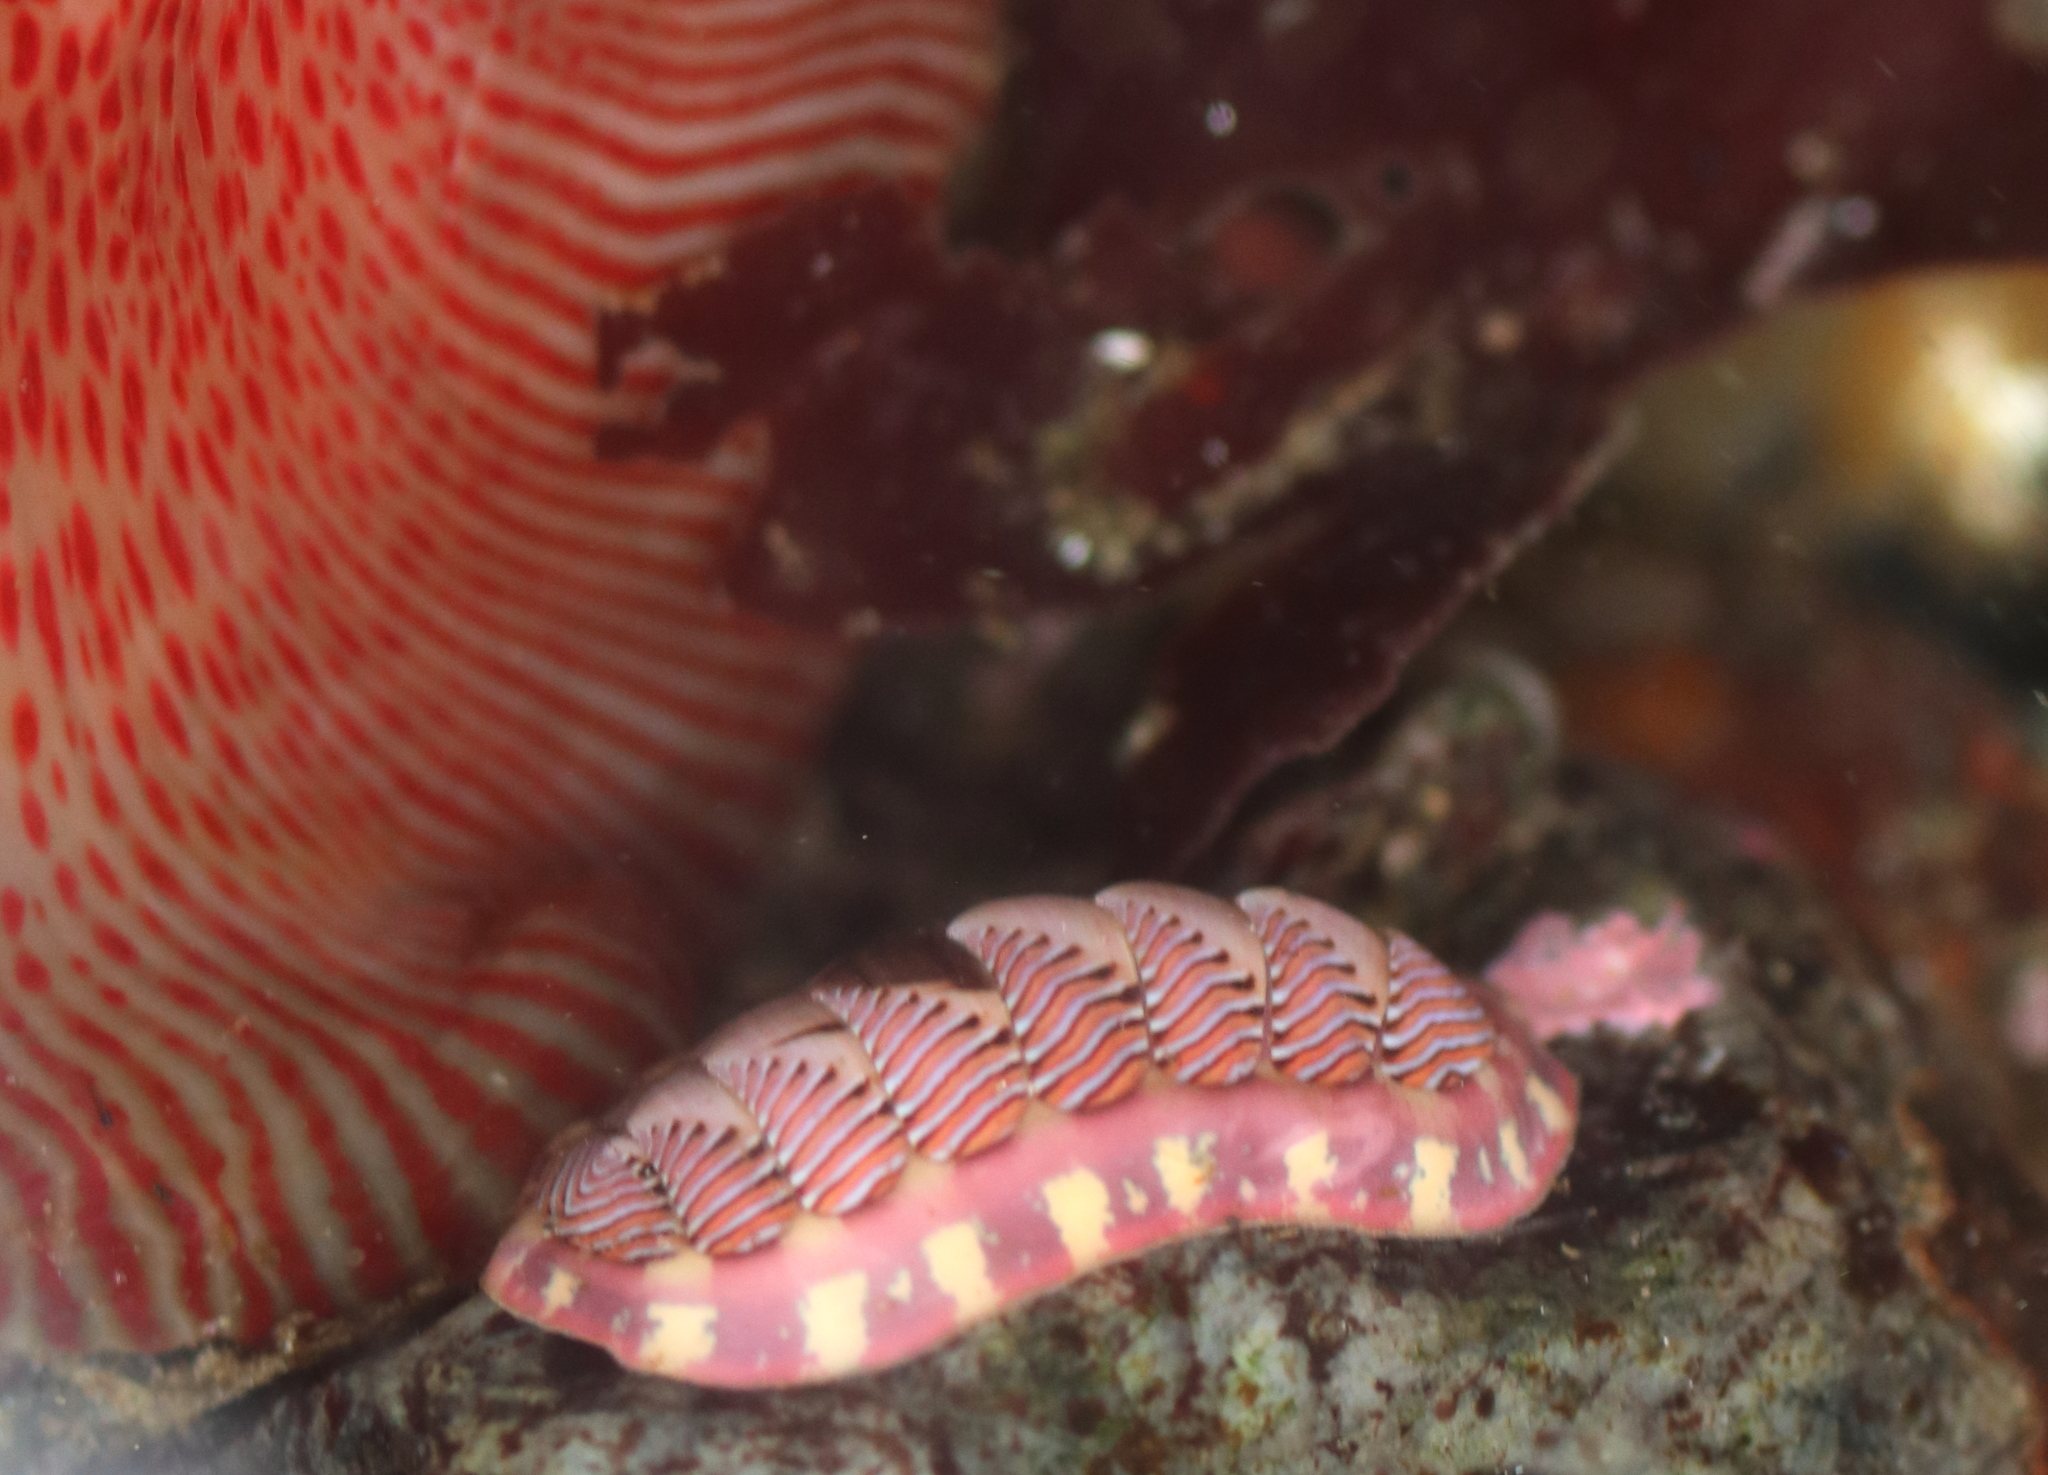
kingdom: Animalia
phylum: Mollusca
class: Polyplacophora
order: Chitonida
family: Tonicellidae
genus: Tonicella
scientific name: Tonicella lineata
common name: Lined chiton
